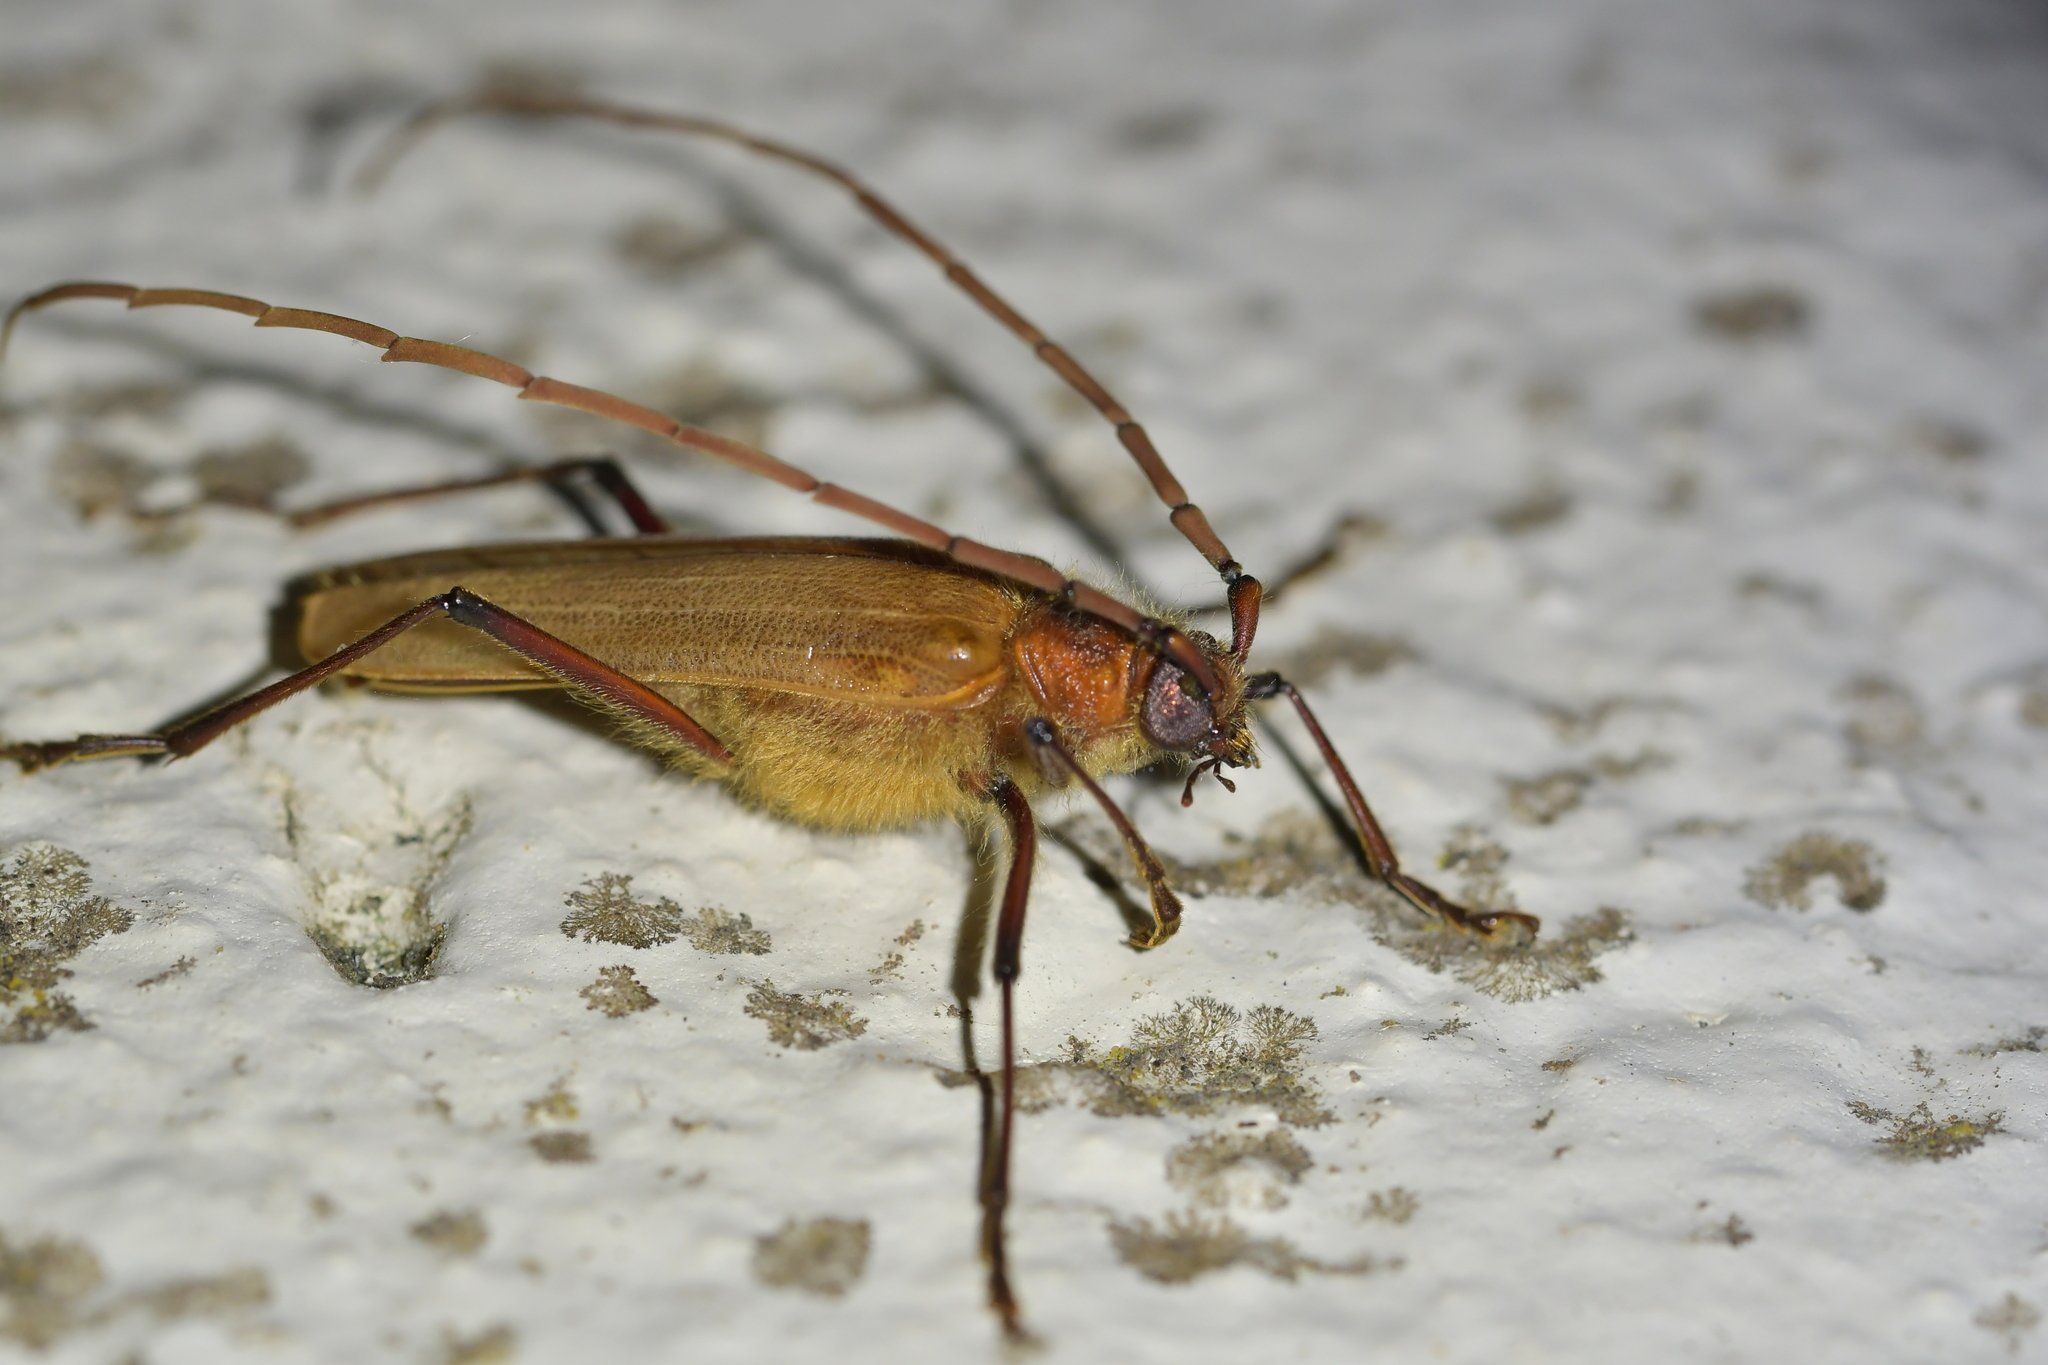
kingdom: Animalia
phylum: Arthropoda
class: Insecta
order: Coleoptera
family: Cerambycidae
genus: Ochrocydus
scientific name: Ochrocydus huttoni
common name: Kanuka longhorn
